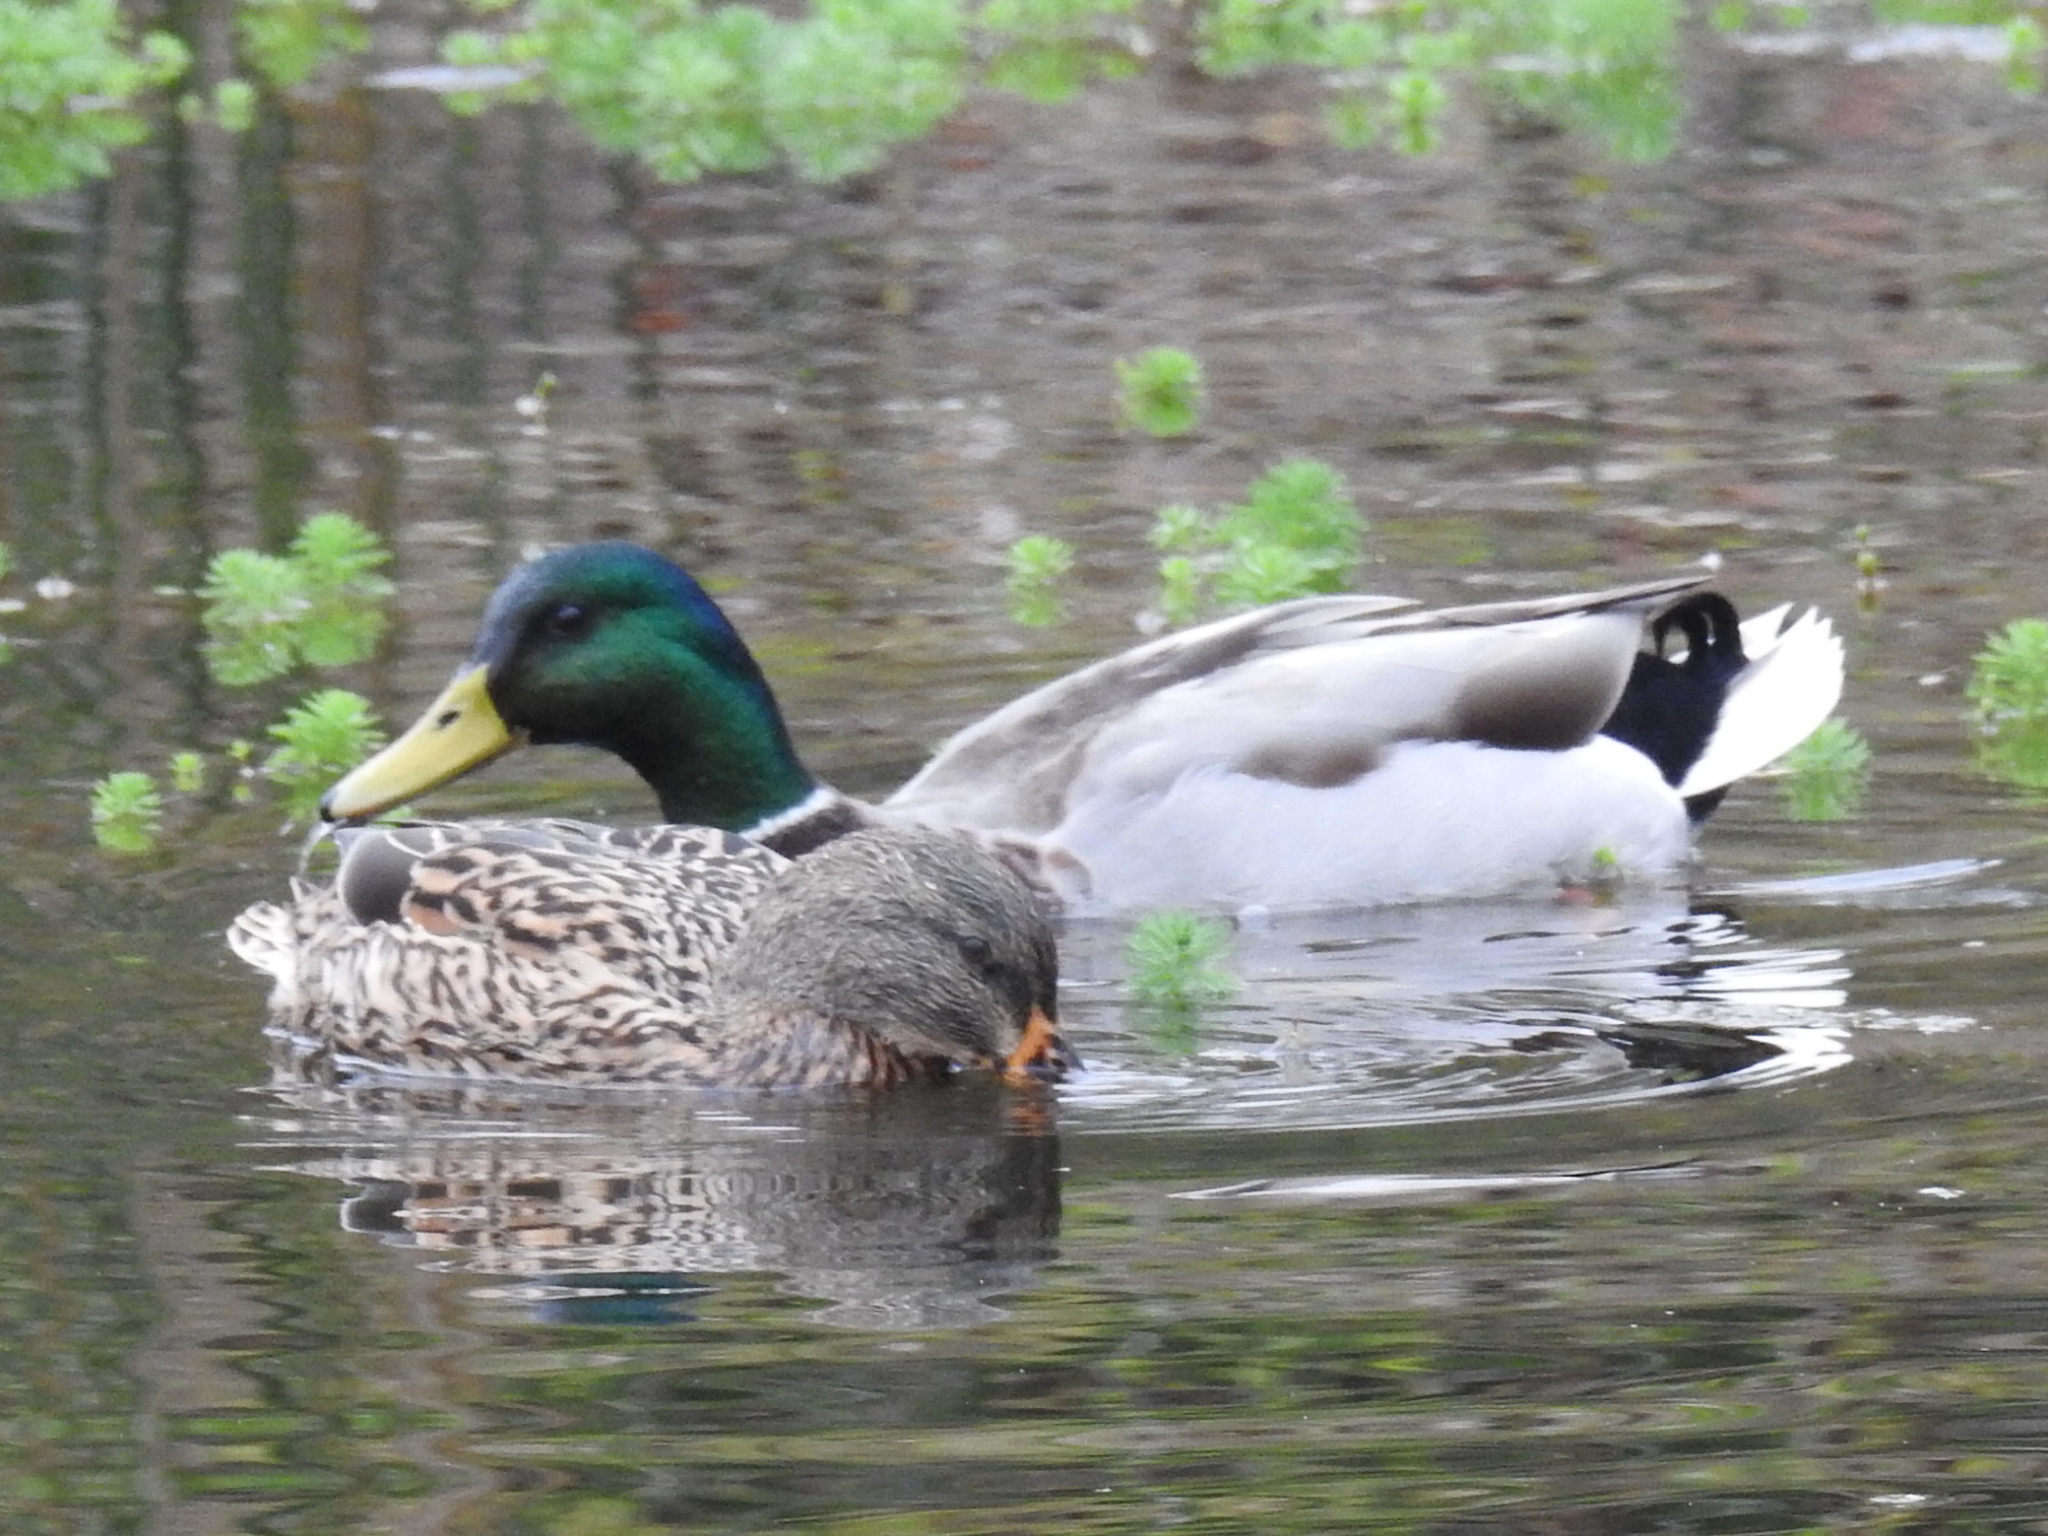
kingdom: Animalia
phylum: Chordata
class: Aves
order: Anseriformes
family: Anatidae
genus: Anas
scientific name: Anas platyrhynchos
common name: Mallard
